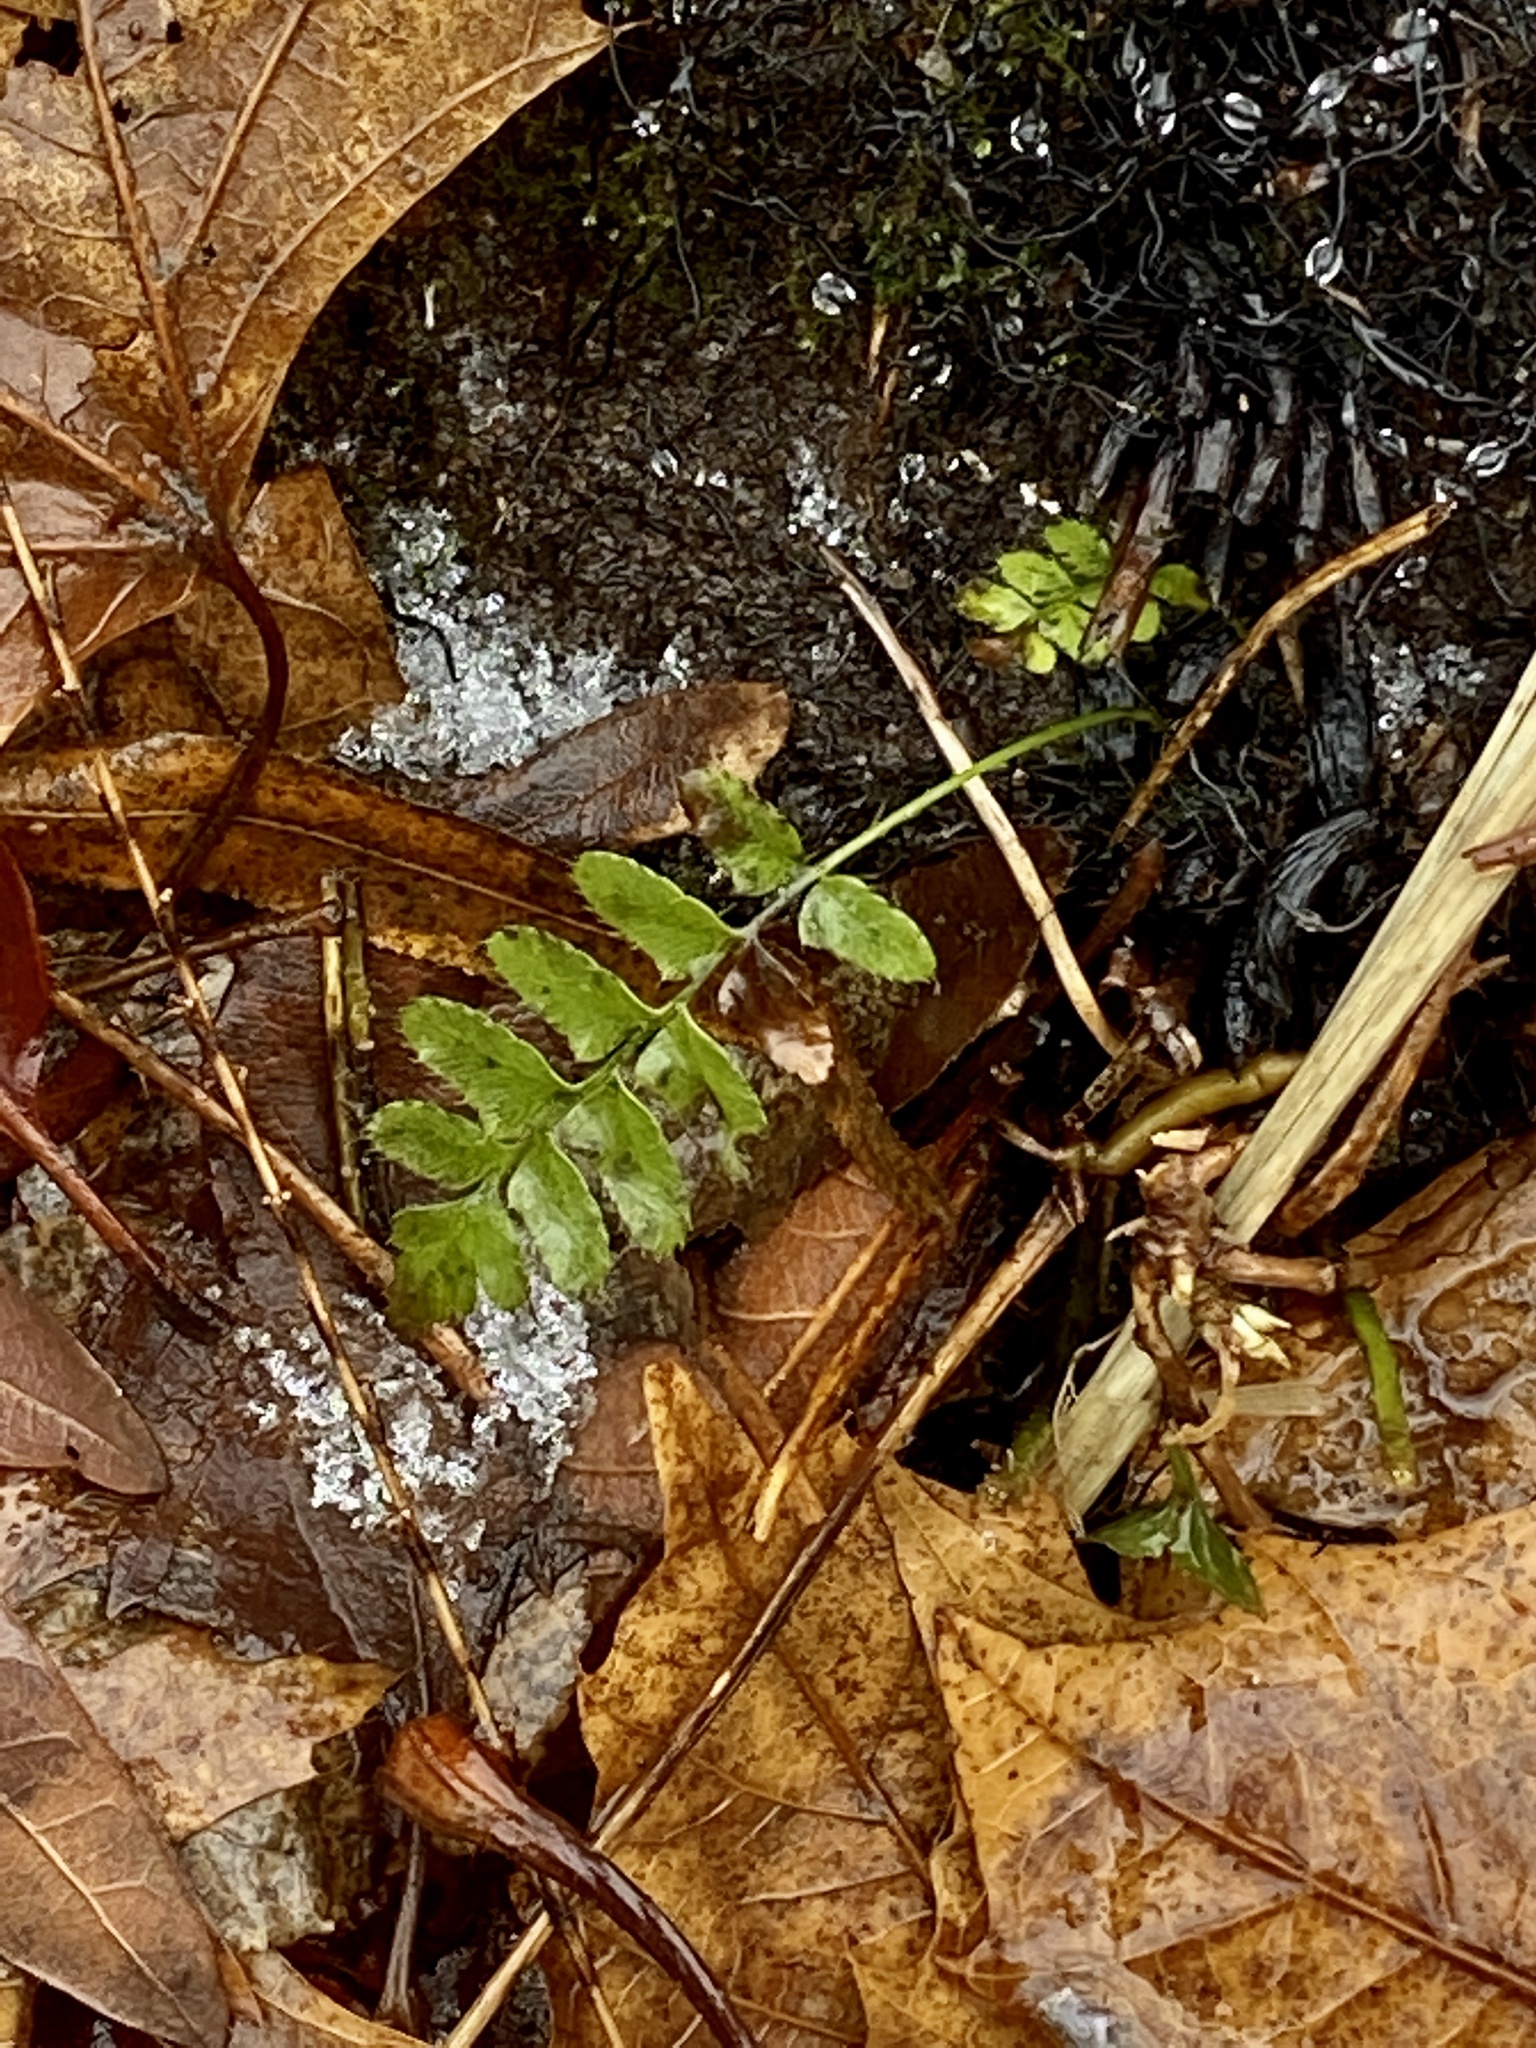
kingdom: Plantae
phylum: Tracheophyta
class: Polypodiopsida
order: Polypodiales
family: Dryopteridaceae
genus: Polystichum
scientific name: Polystichum acrostichoides
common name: Christmas fern
